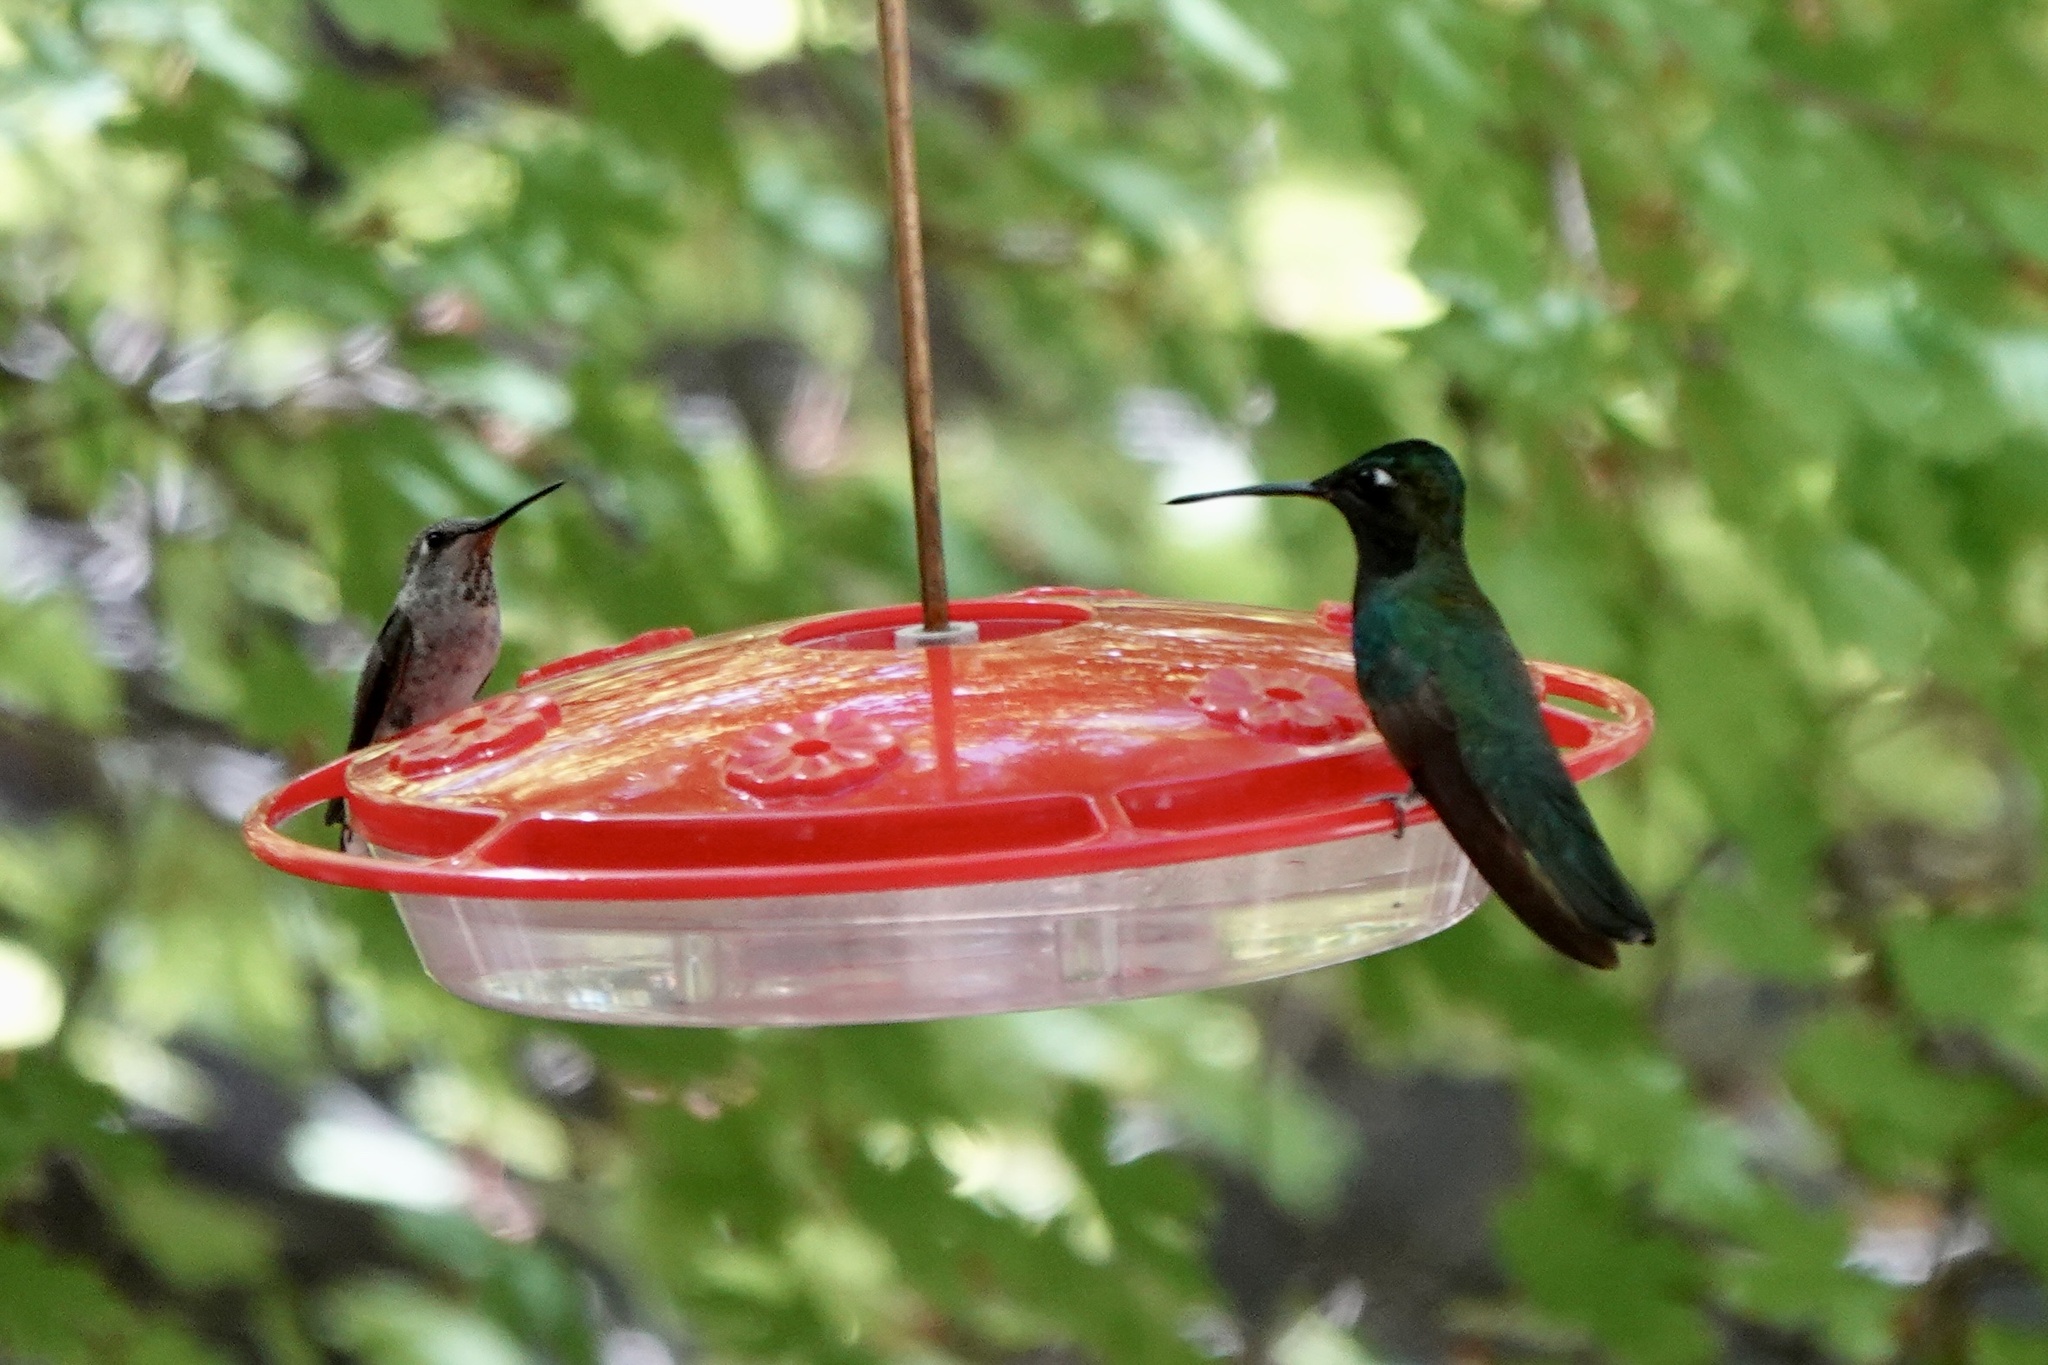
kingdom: Animalia
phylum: Chordata
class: Aves
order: Apodiformes
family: Trochilidae
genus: Calypte
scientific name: Calypte anna
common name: Anna's hummingbird
